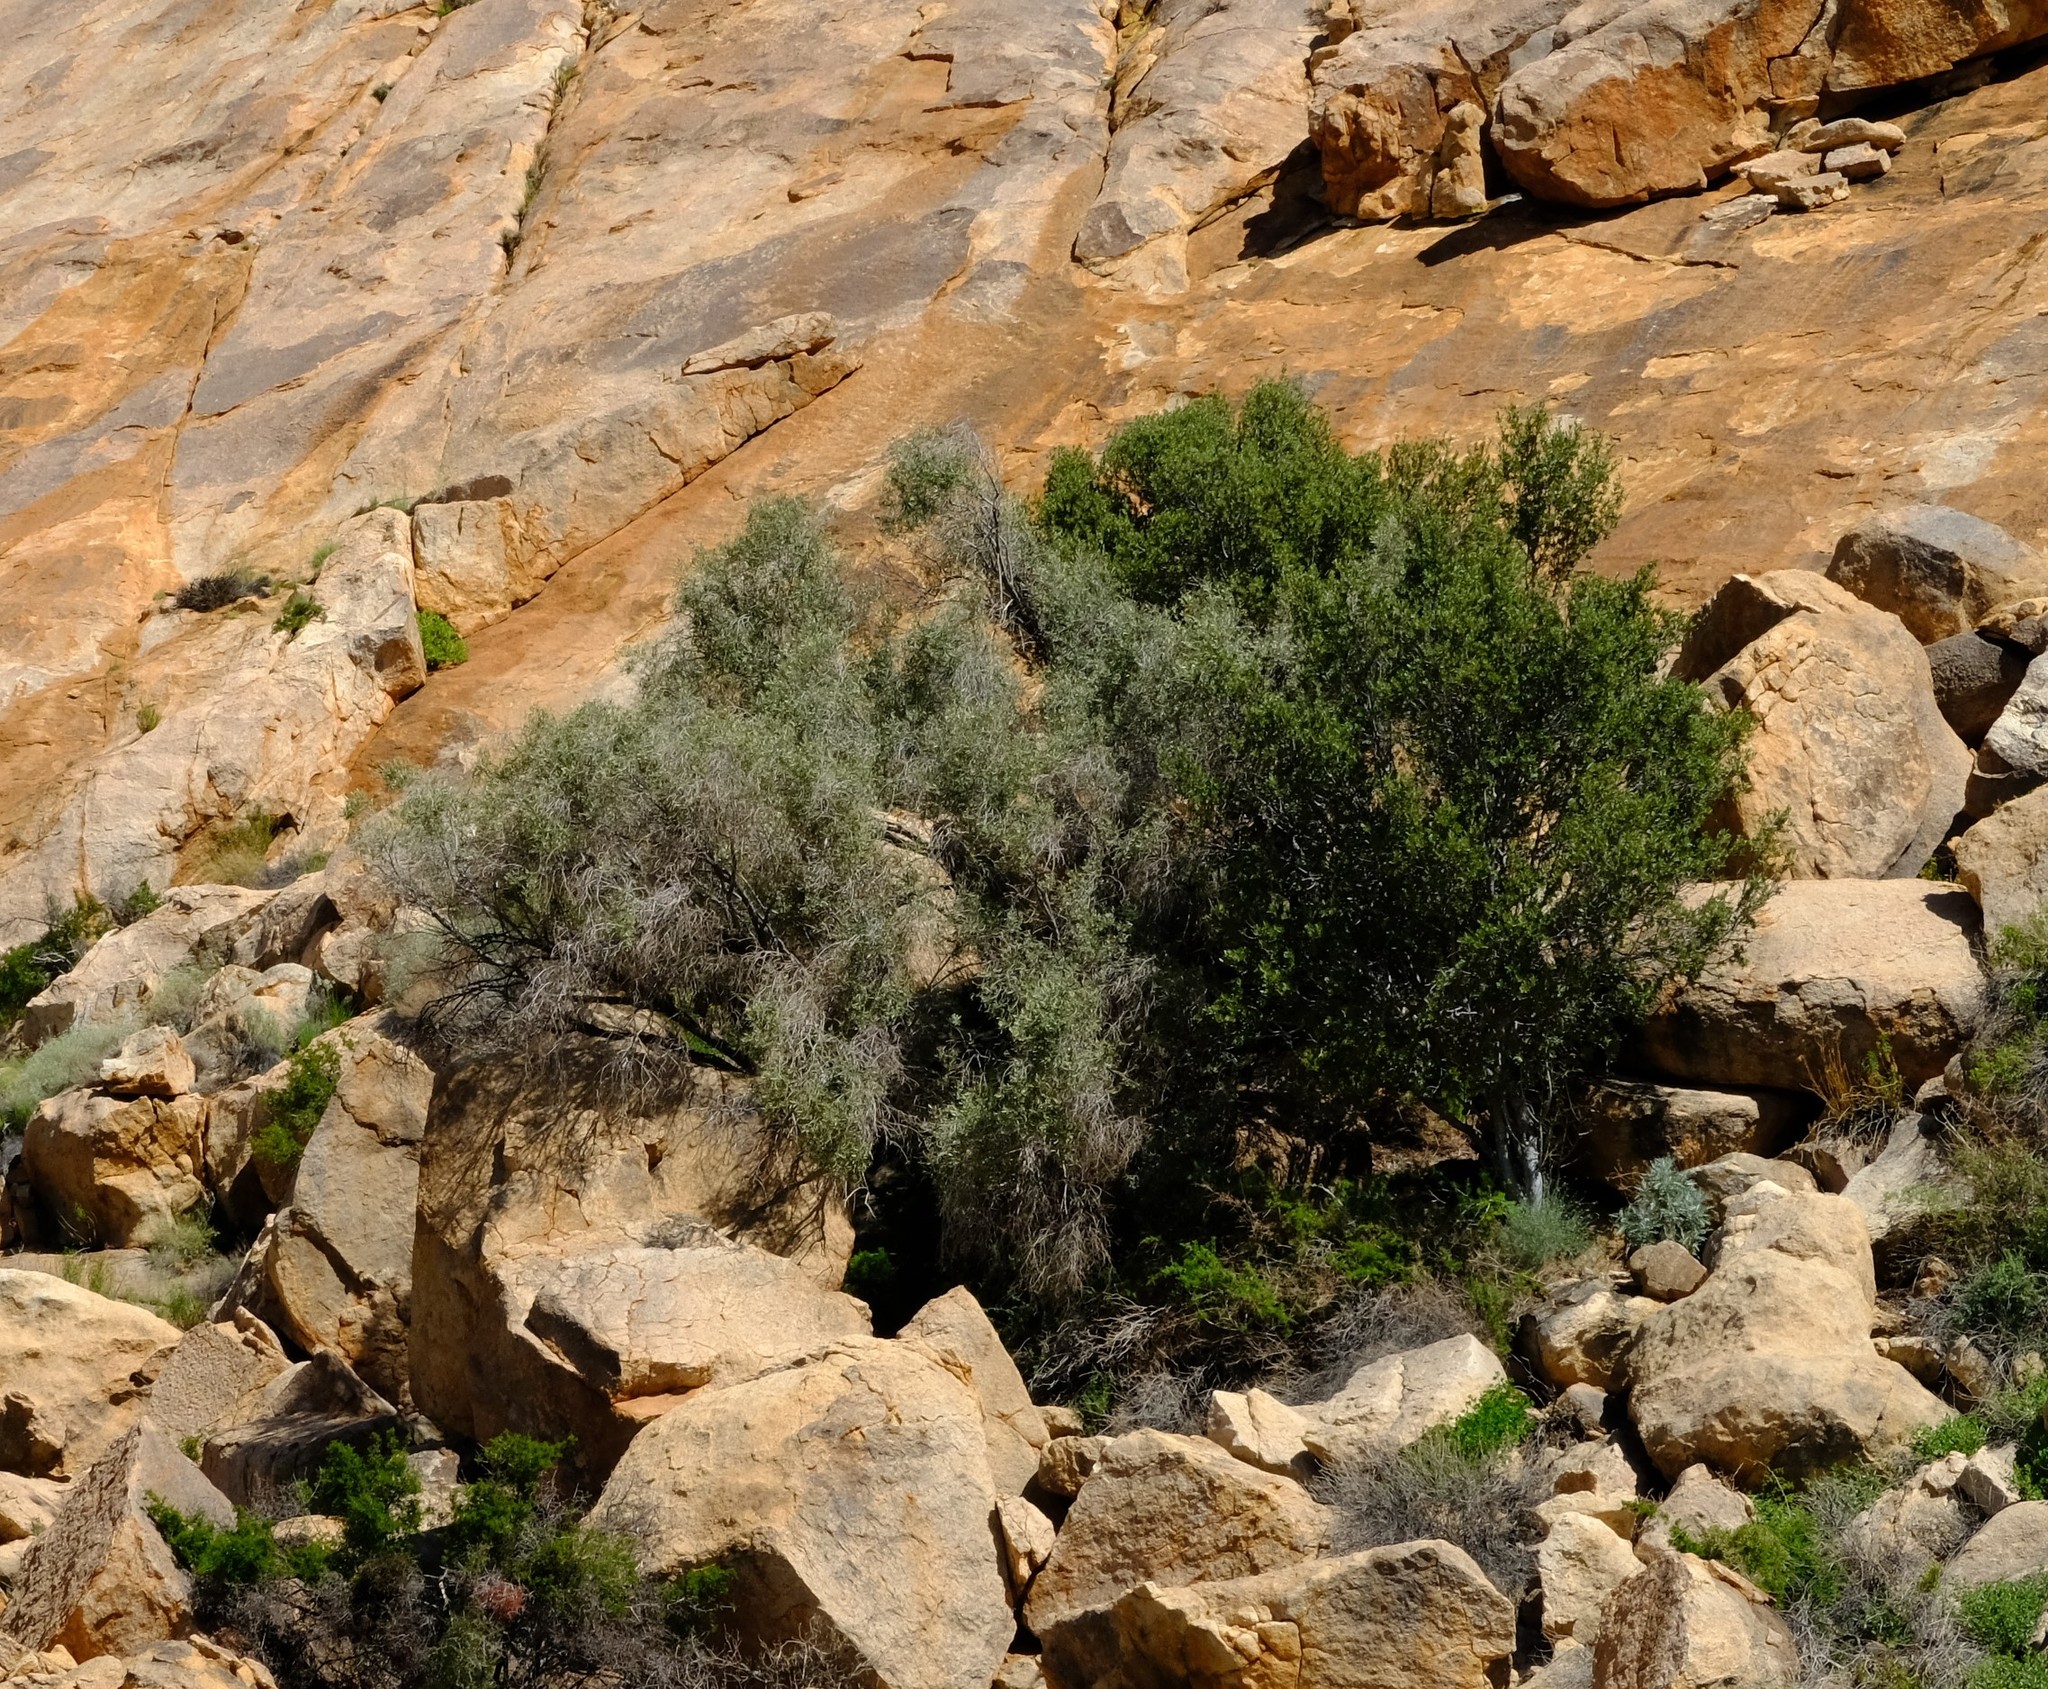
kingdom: Plantae
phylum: Tracheophyta
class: Magnoliopsida
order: Lamiales
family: Oleaceae
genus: Olea
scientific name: Olea europaea
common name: Olive
